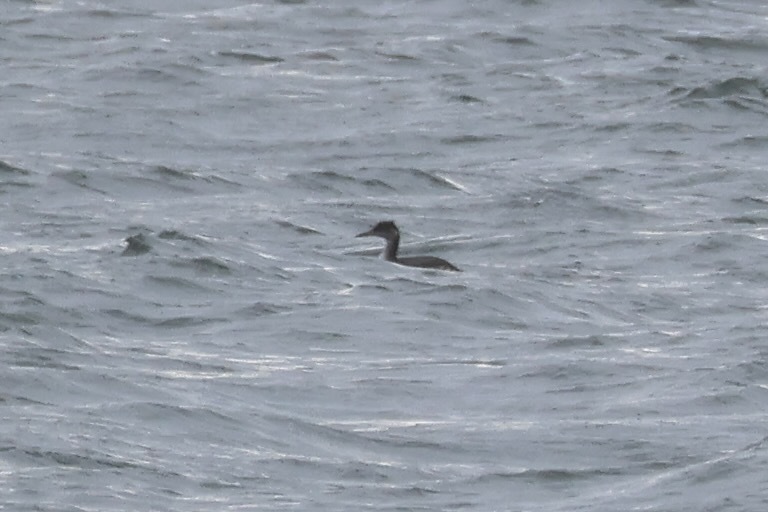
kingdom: Animalia
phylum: Chordata
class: Aves
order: Podicipediformes
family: Podicipedidae
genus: Podiceps
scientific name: Podiceps grisegena
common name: Red-necked grebe
